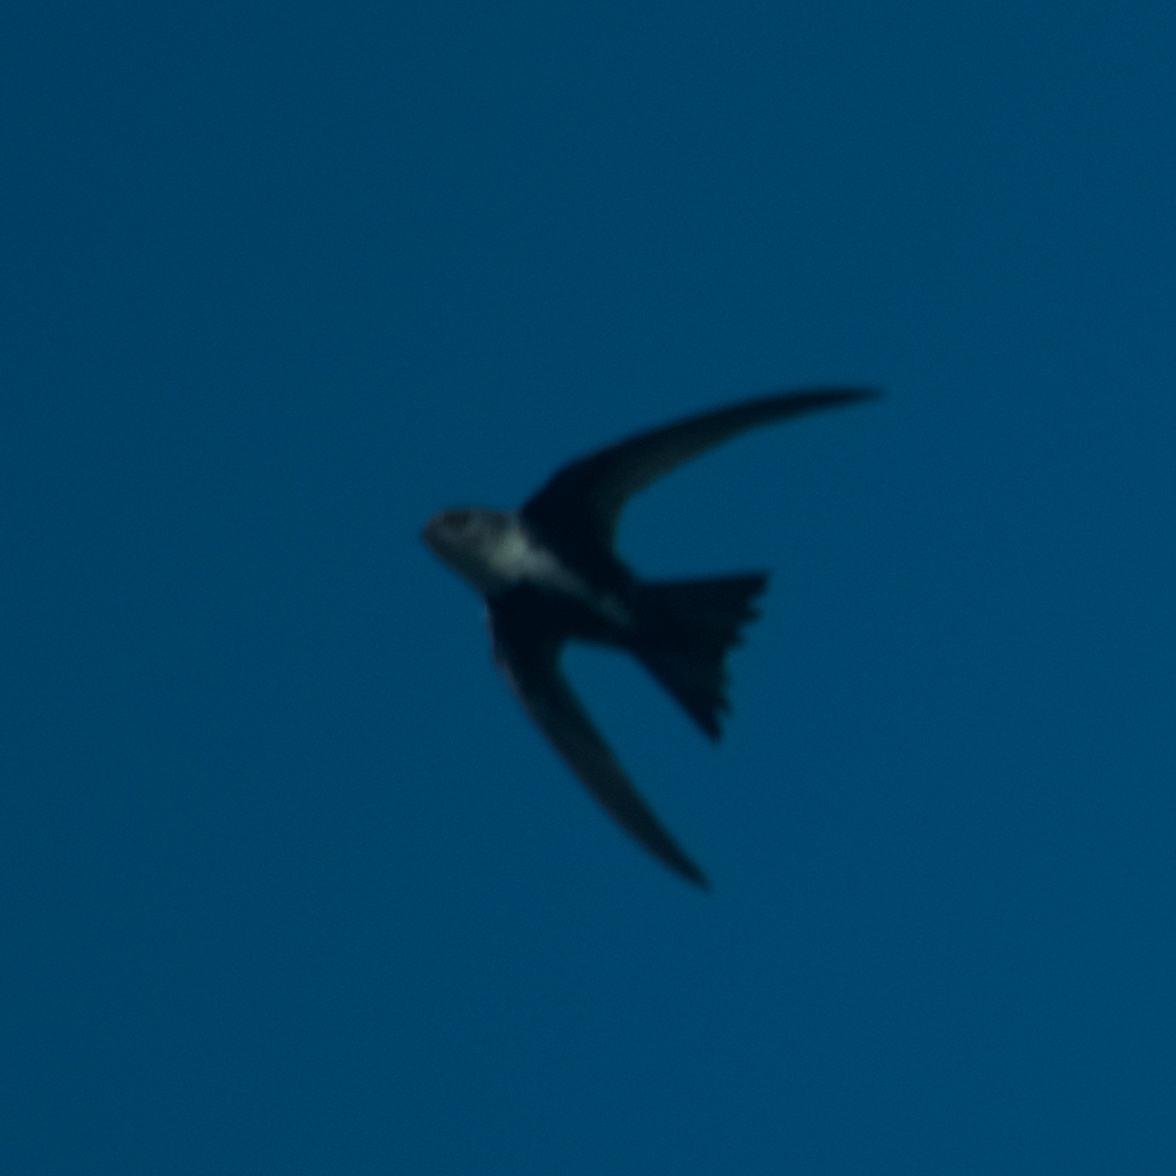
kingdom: Animalia
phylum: Chordata
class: Aves
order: Apodiformes
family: Apodidae
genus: Aeronautes
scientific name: Aeronautes saxatalis
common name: White-throated swift
